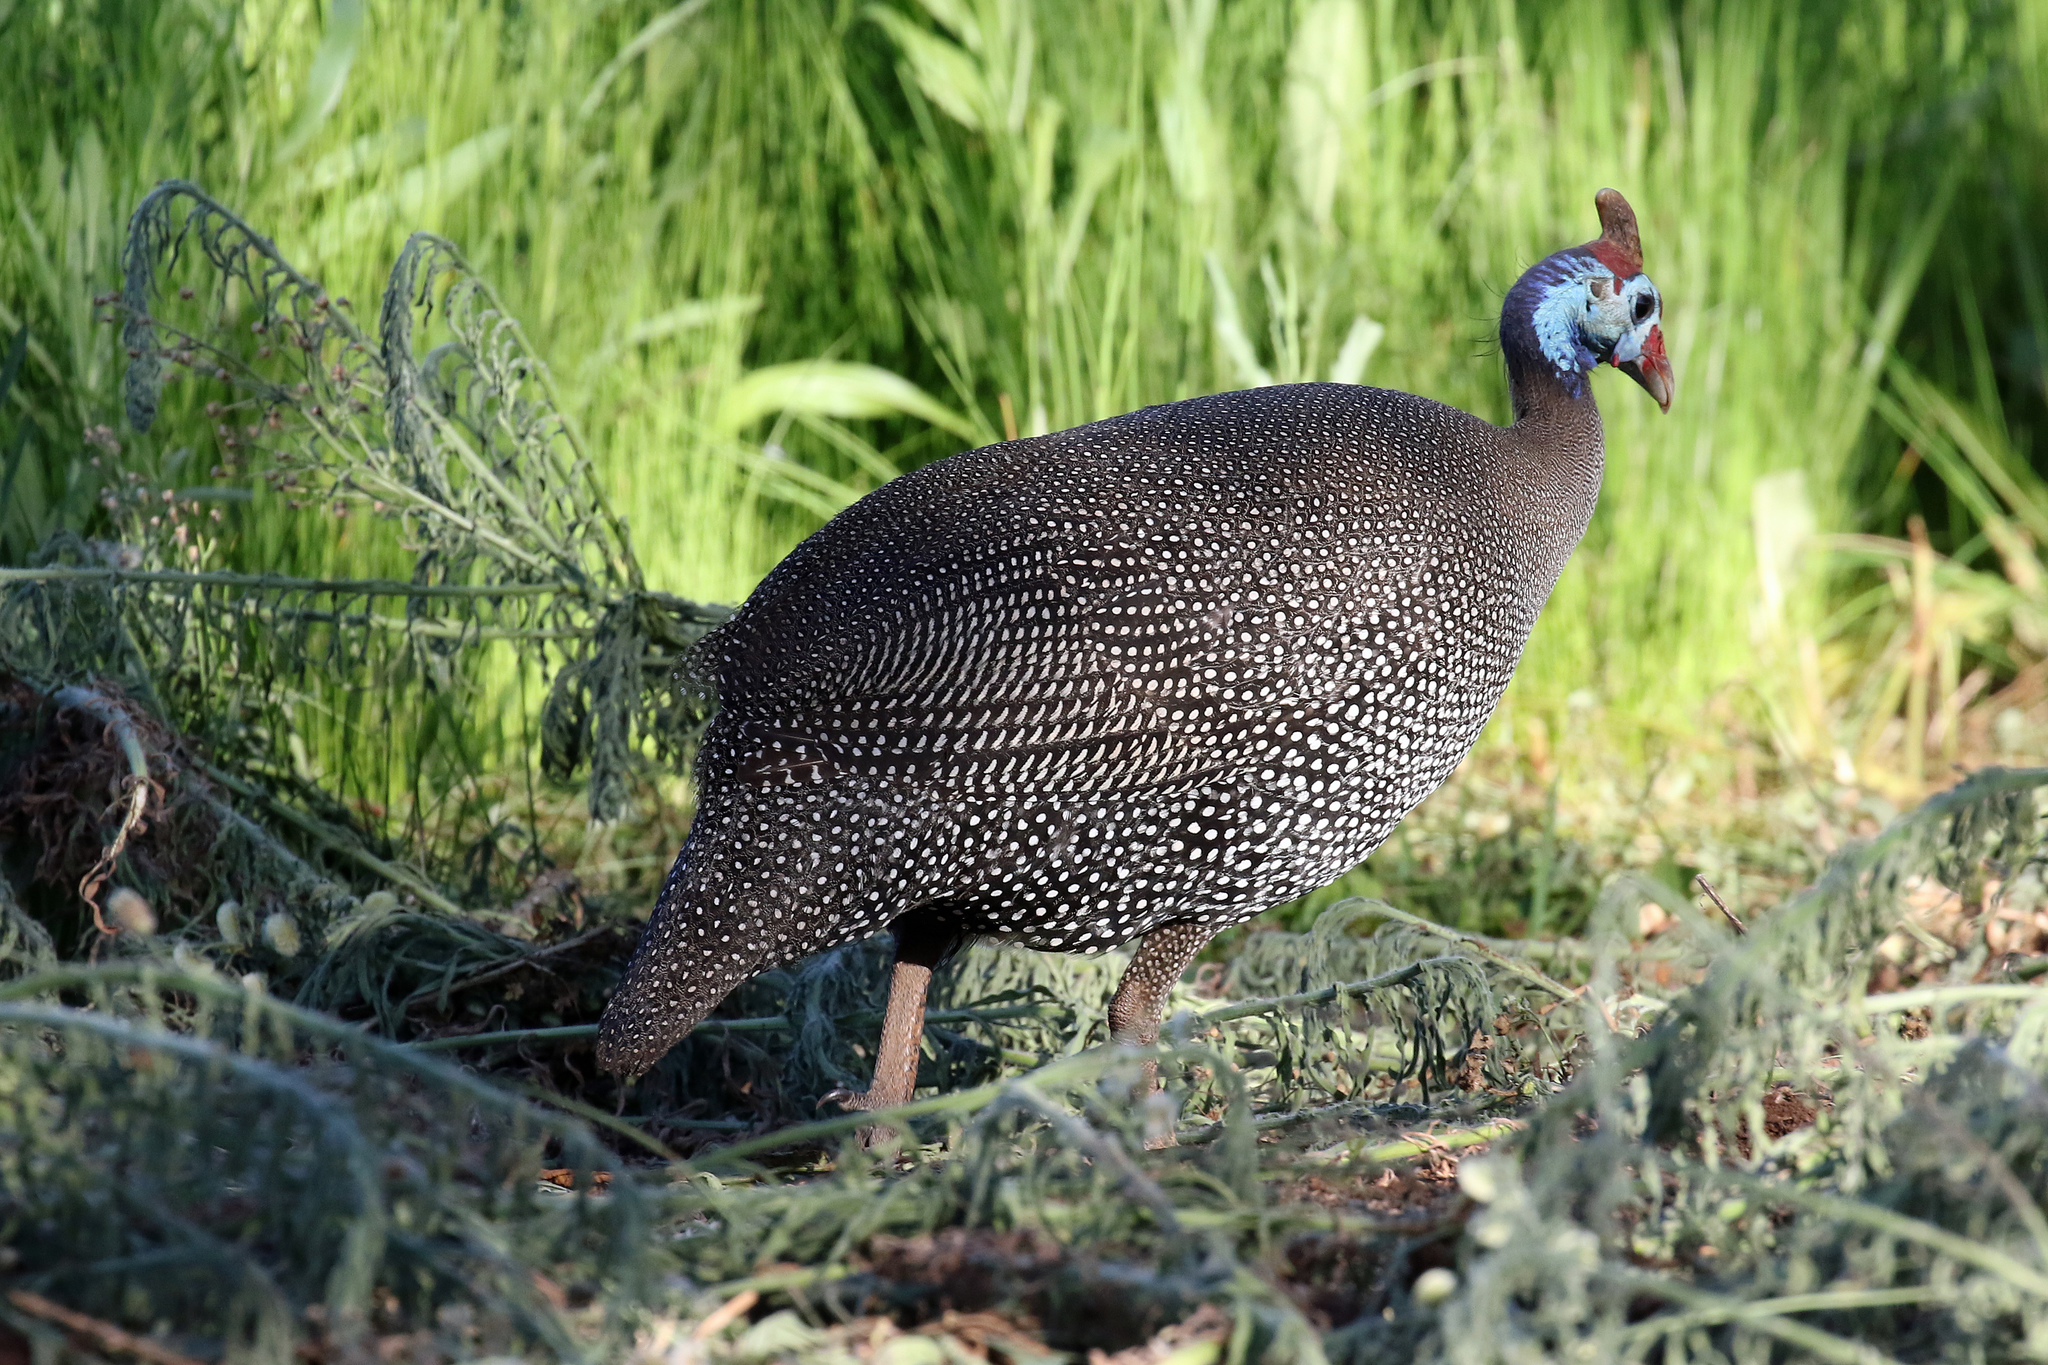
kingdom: Animalia
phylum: Chordata
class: Aves
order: Galliformes
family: Numididae
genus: Numida
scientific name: Numida meleagris
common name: Helmeted guineafowl
